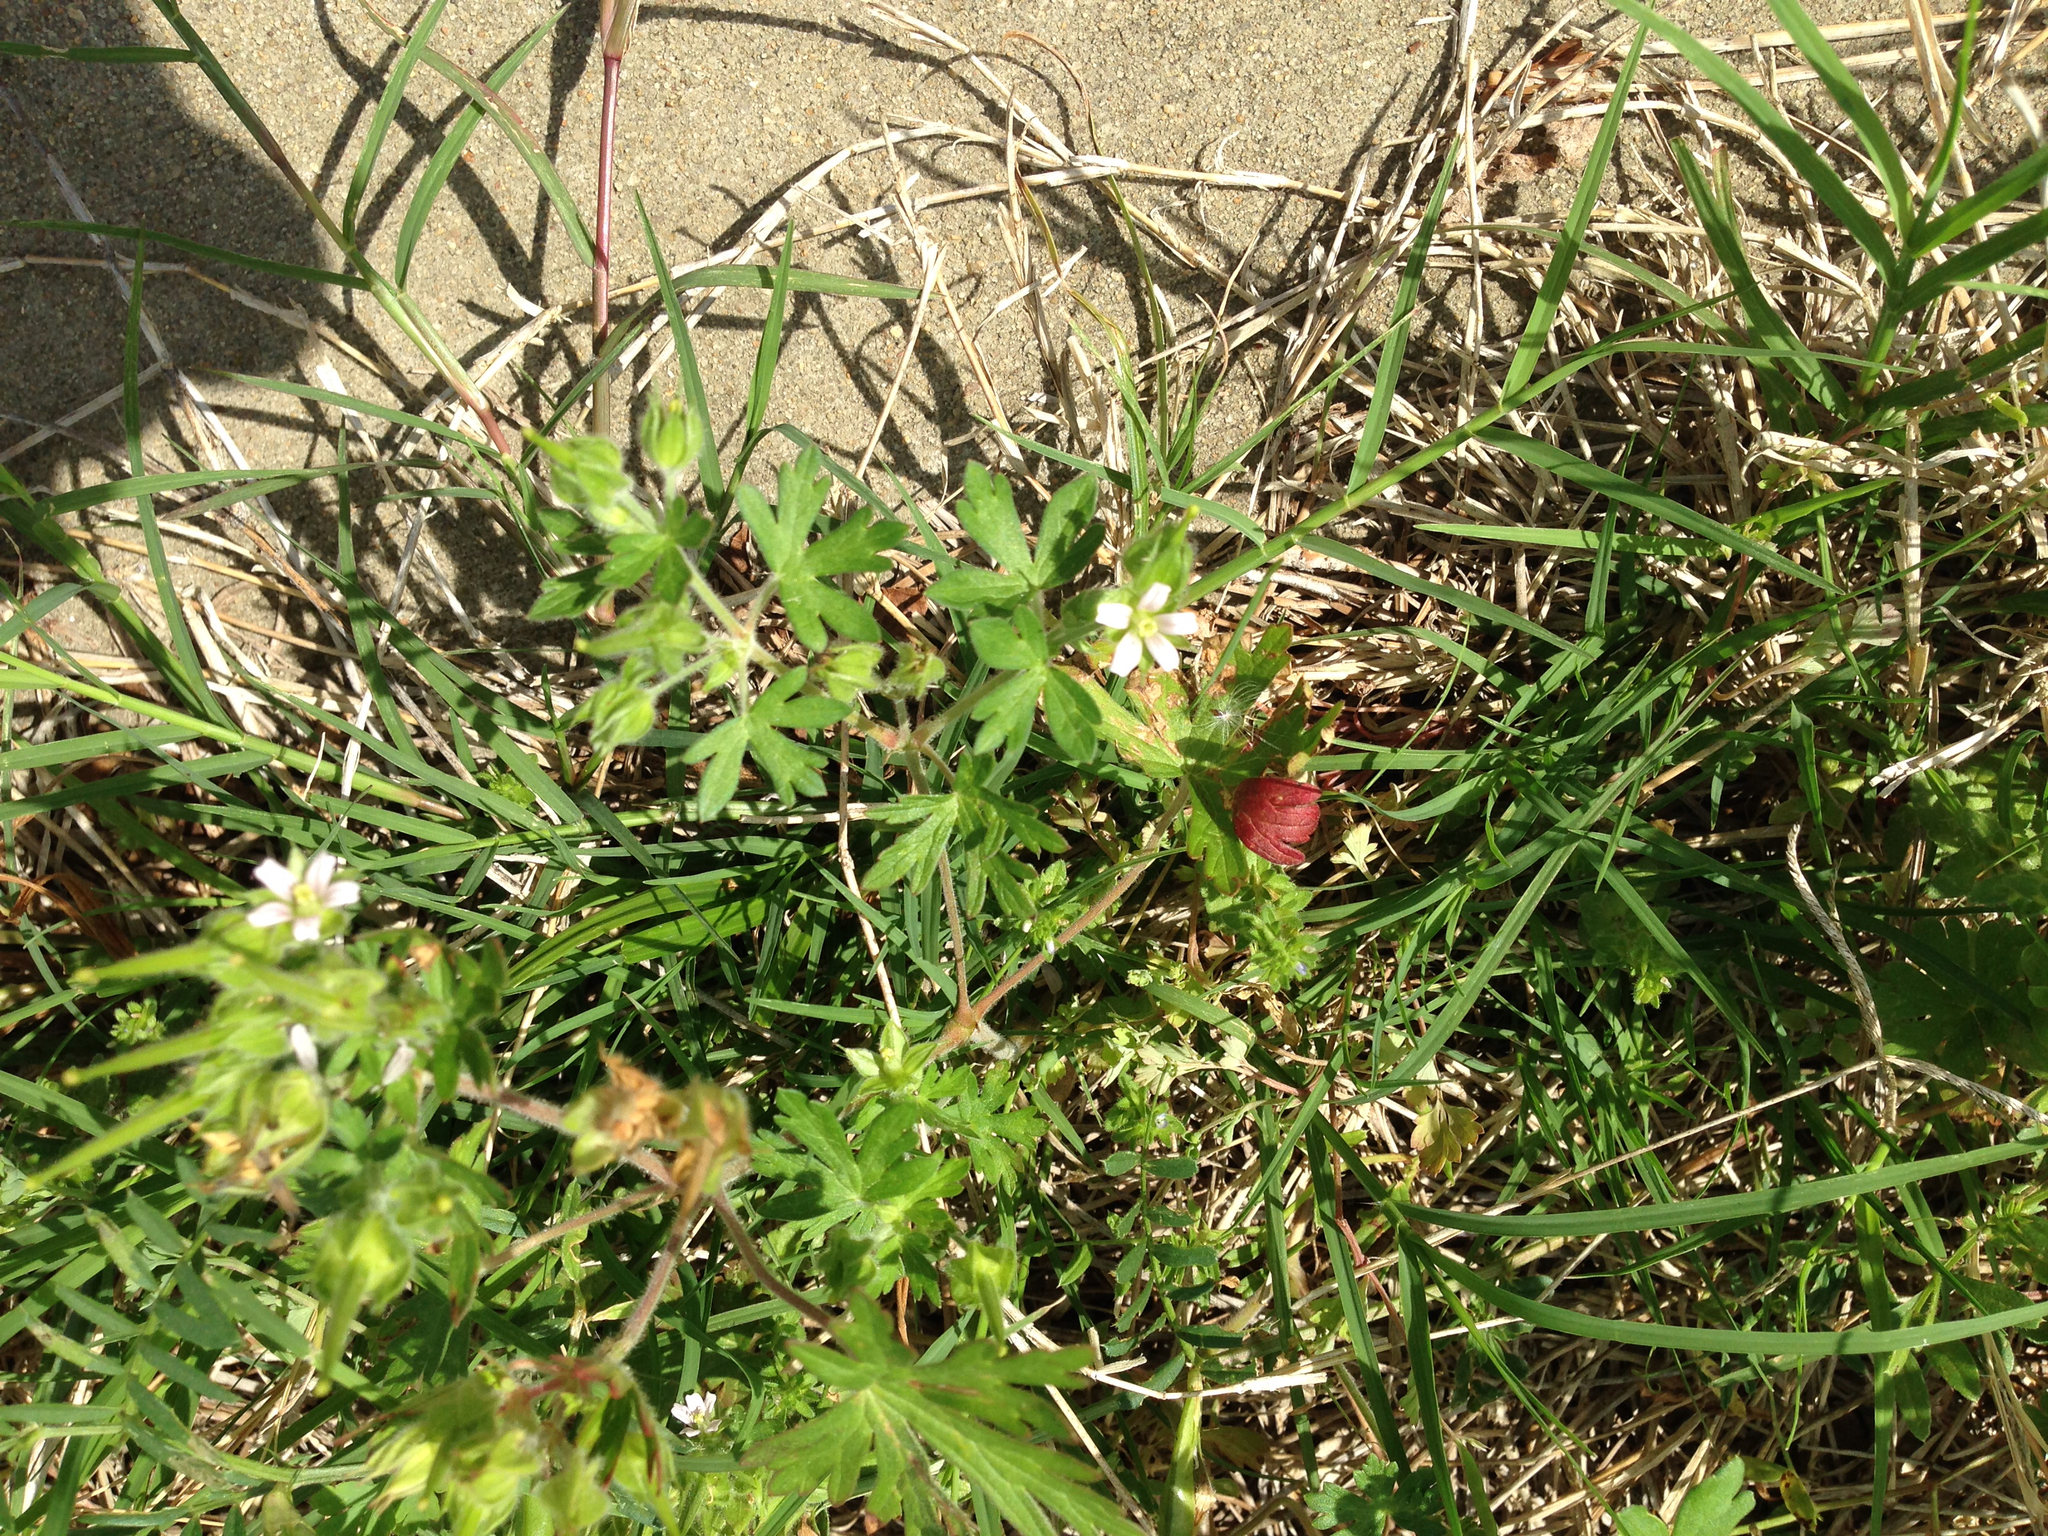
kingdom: Plantae
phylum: Tracheophyta
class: Magnoliopsida
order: Geraniales
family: Geraniaceae
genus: Geranium
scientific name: Geranium carolinianum
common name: Carolina crane's-bill
